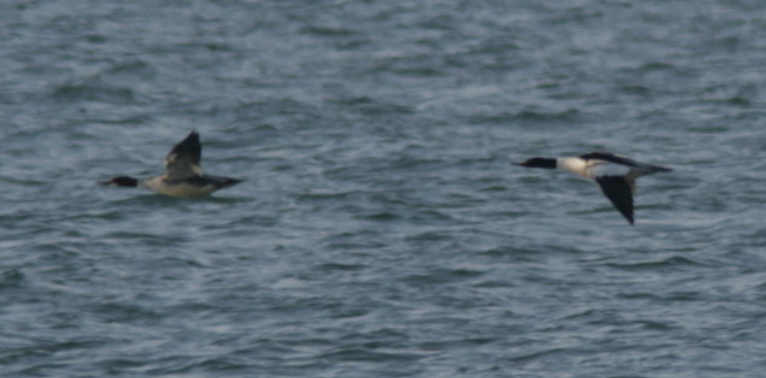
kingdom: Animalia
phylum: Chordata
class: Aves
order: Anseriformes
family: Anatidae
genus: Mergus
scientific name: Mergus merganser
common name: Common merganser
